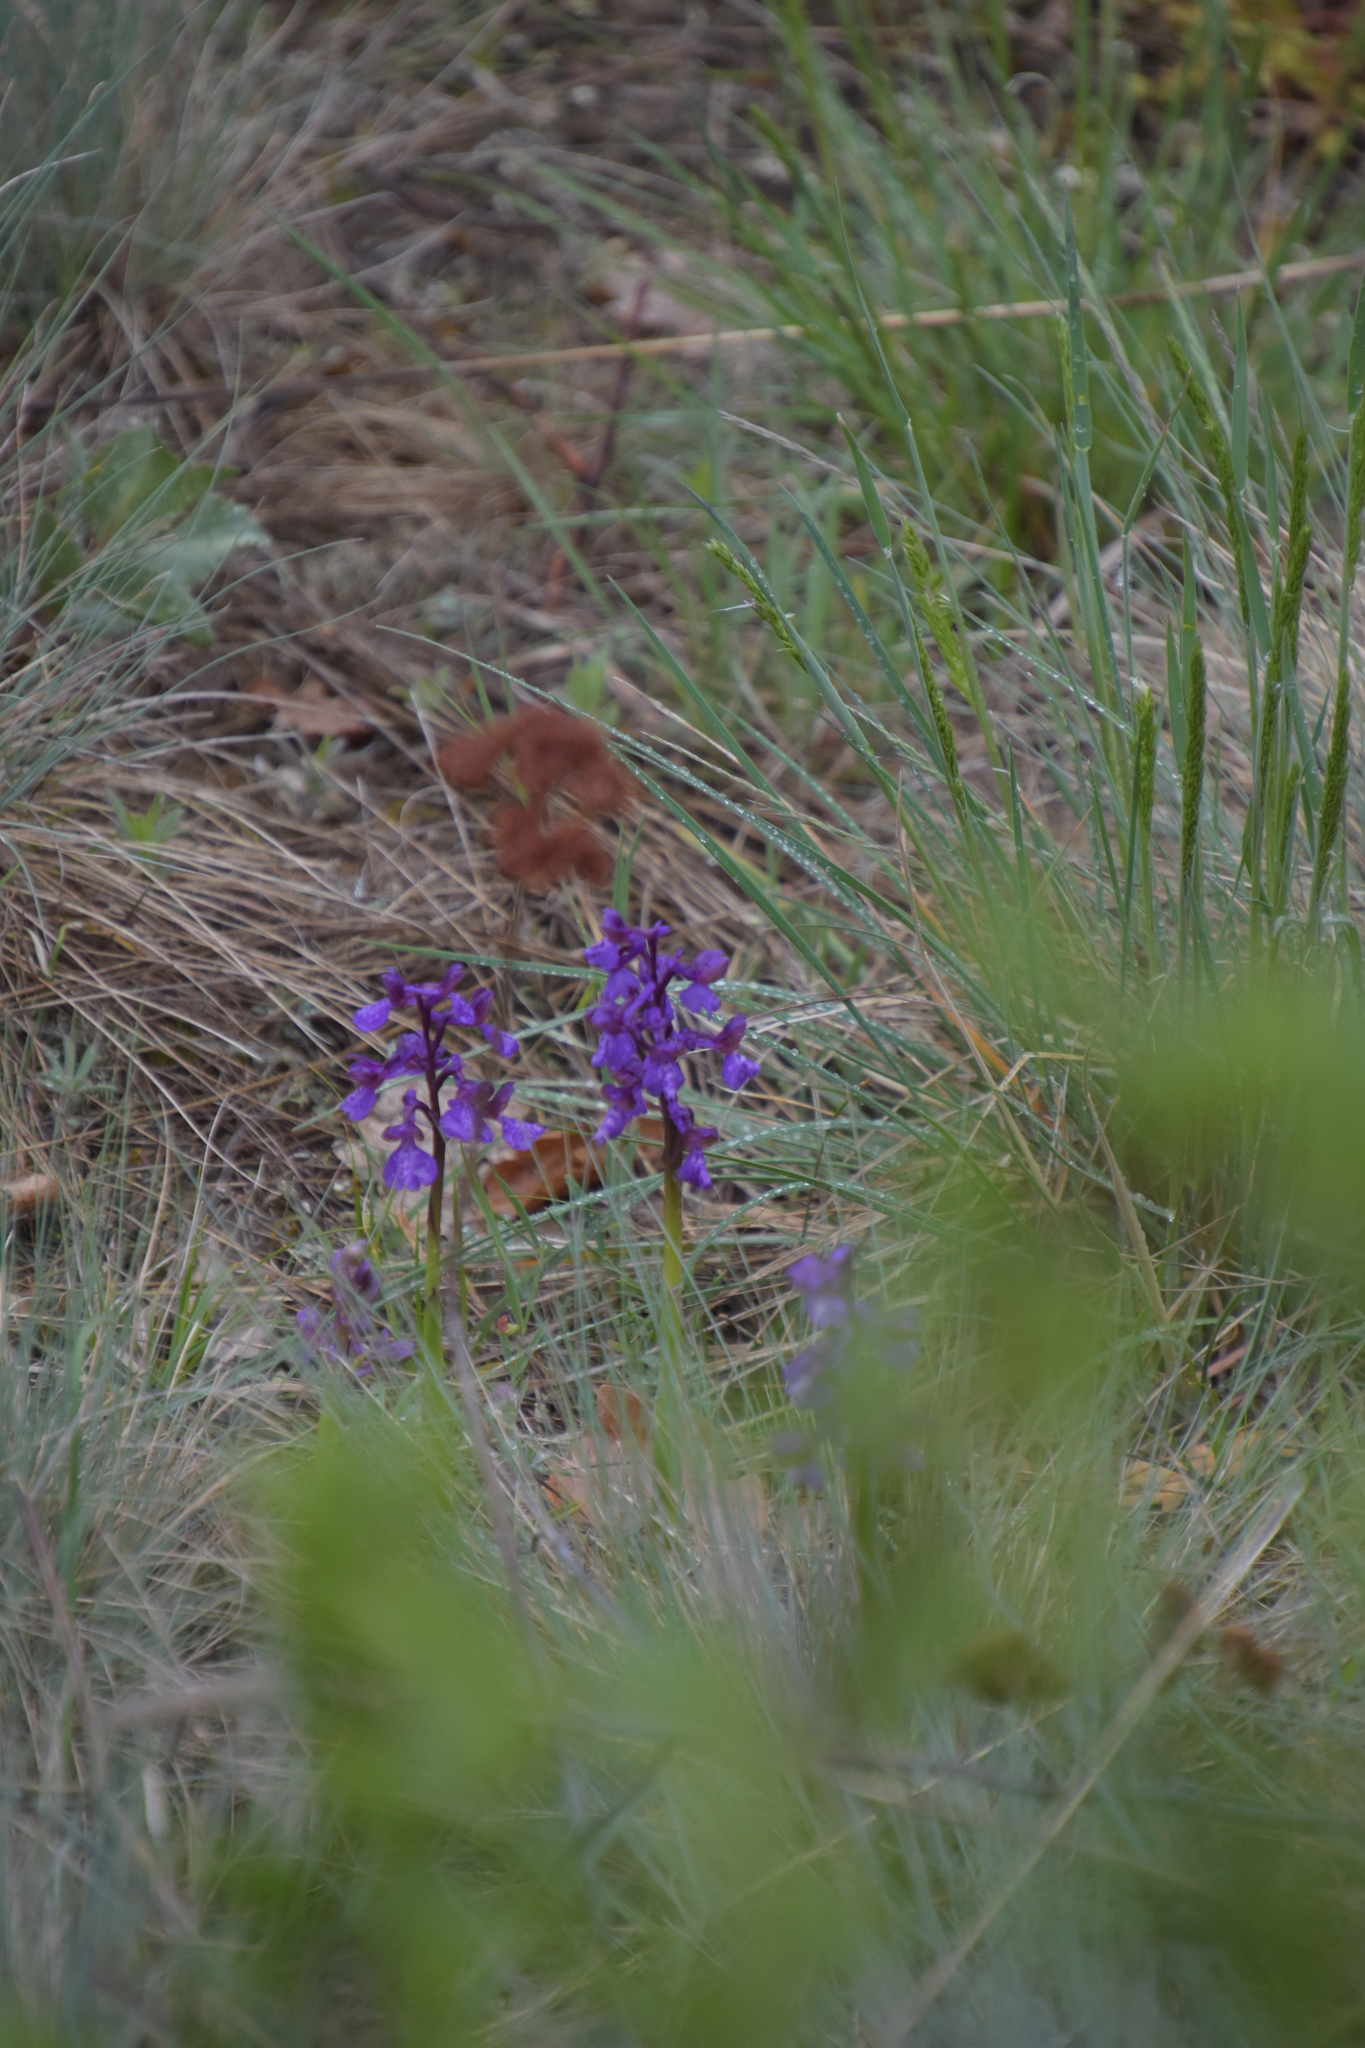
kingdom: Plantae
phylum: Tracheophyta
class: Liliopsida
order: Asparagales
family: Orchidaceae
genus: Anacamptis
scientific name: Anacamptis morio
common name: Green-winged orchid
